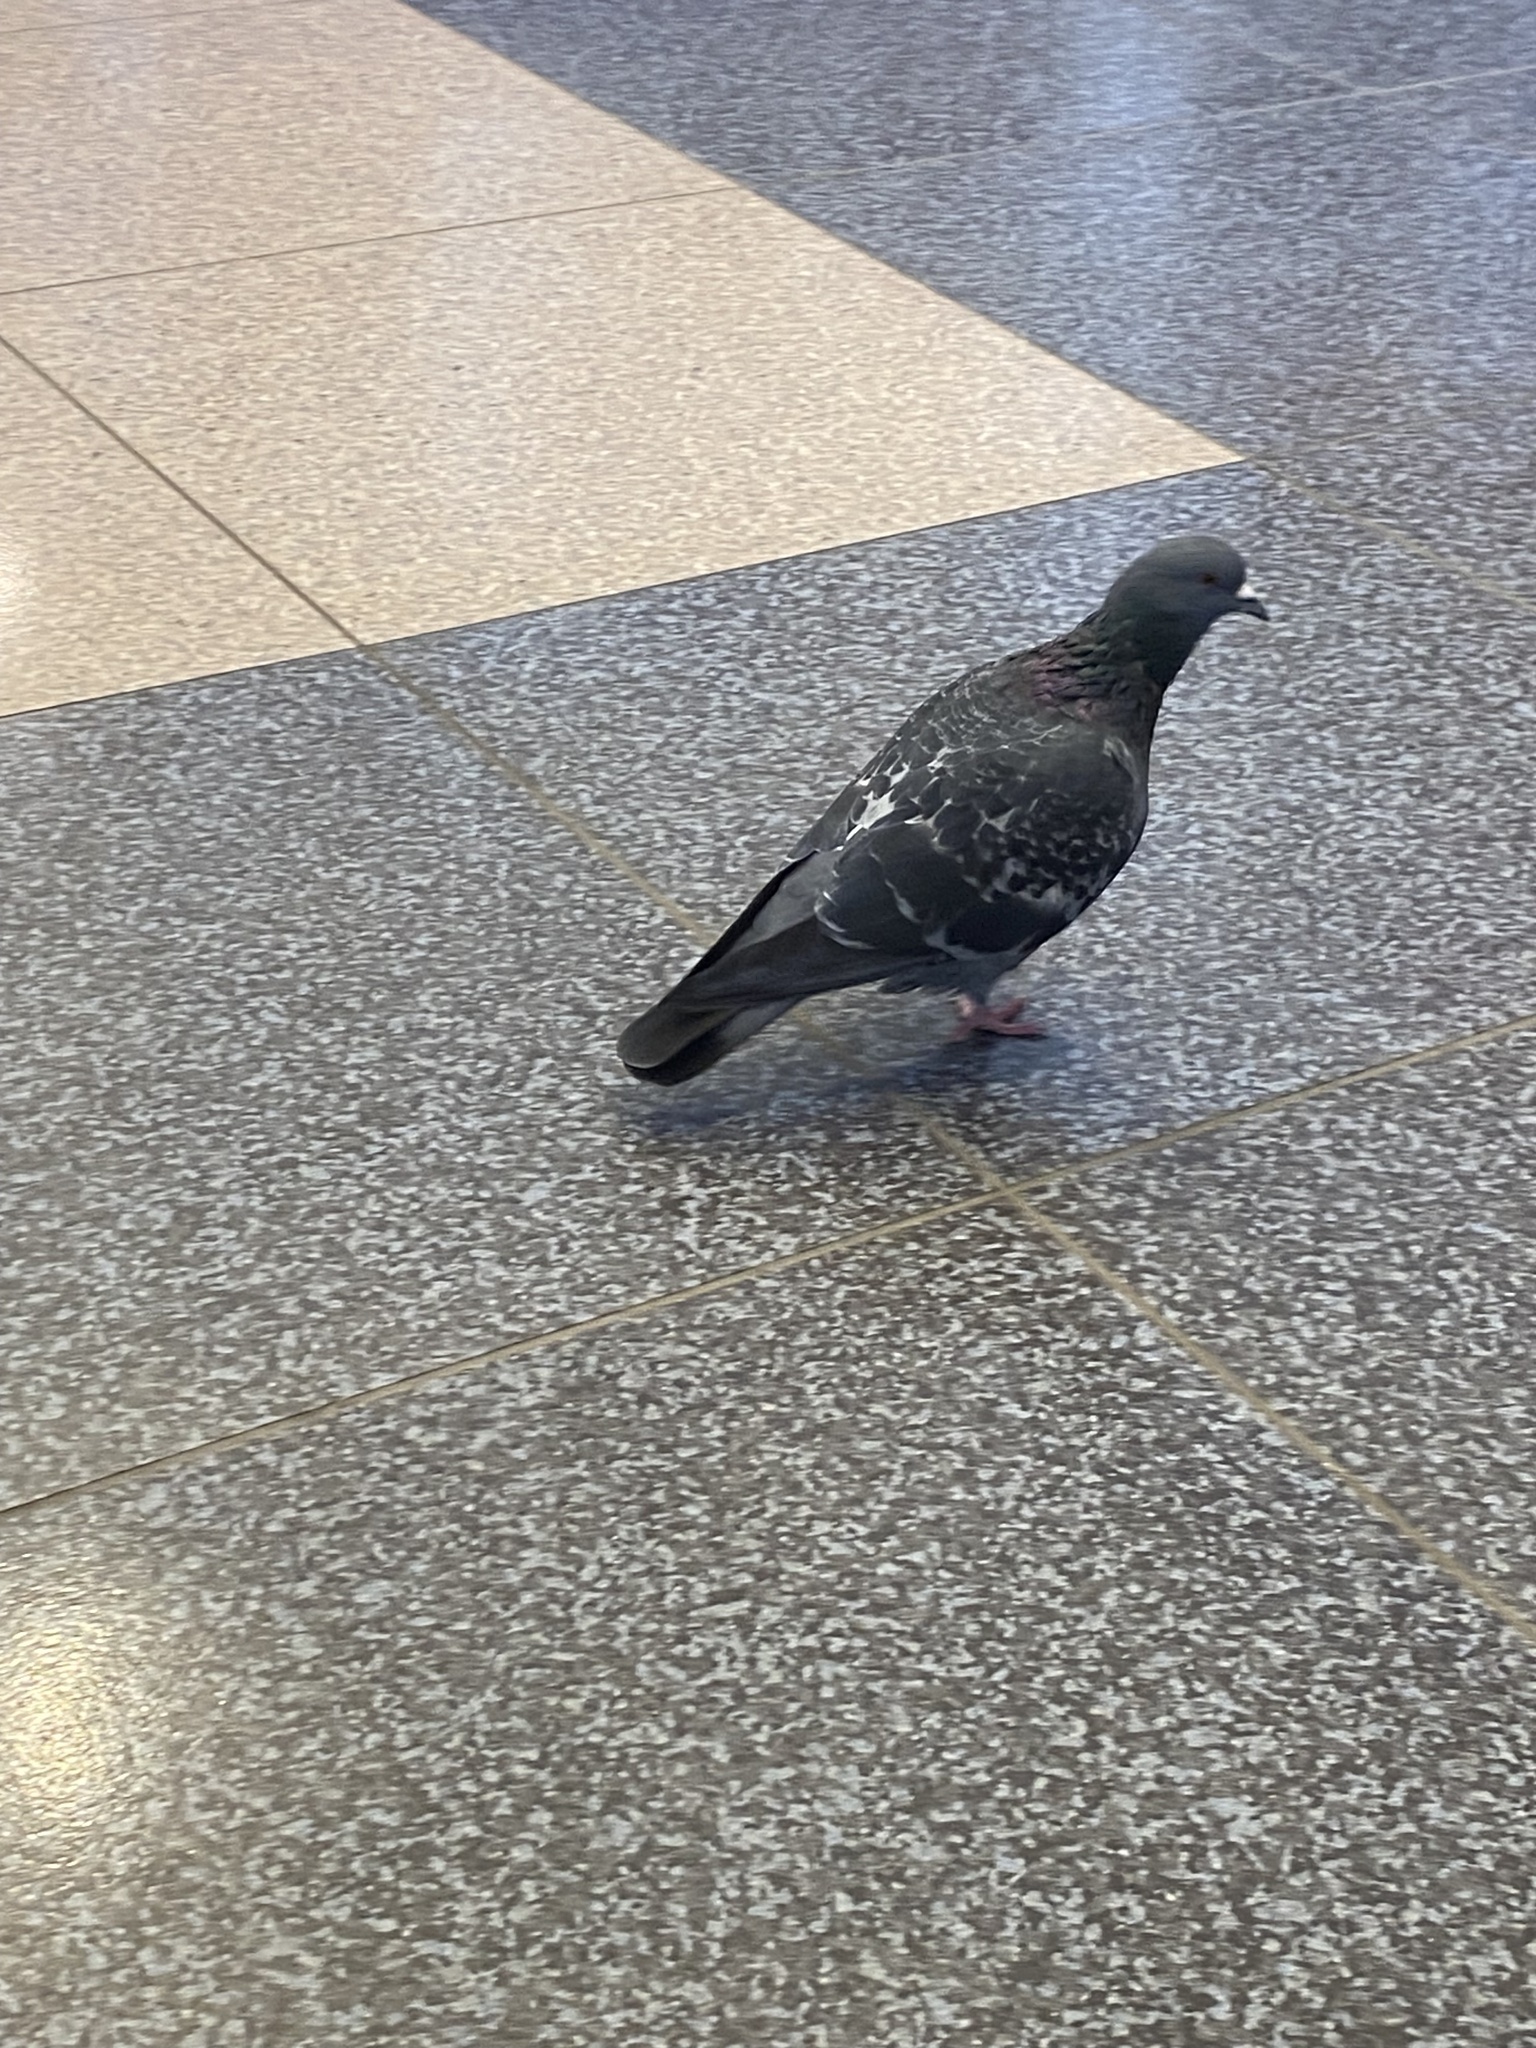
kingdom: Animalia
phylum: Chordata
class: Aves
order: Columbiformes
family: Columbidae
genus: Columba
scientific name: Columba livia
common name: Rock pigeon
